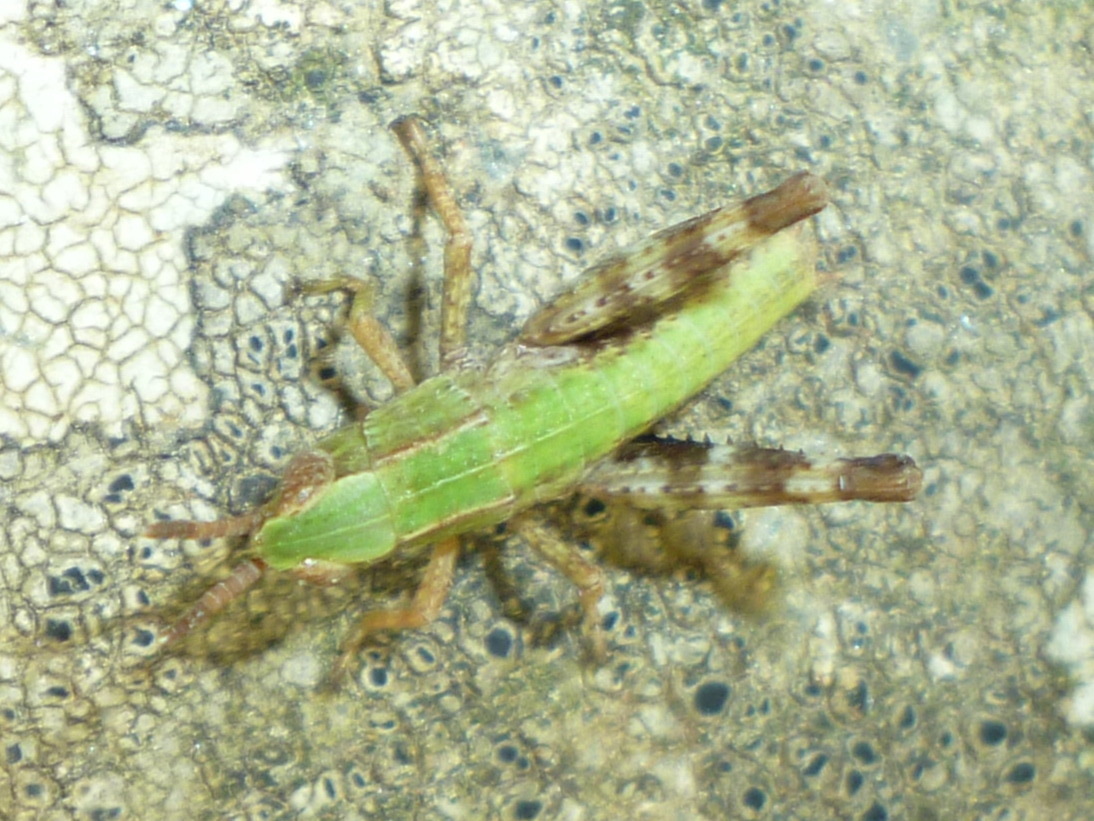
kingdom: Animalia
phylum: Arthropoda
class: Insecta
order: Orthoptera
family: Acrididae
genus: Dichromorpha
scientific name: Dichromorpha viridis
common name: Short-winged green grasshopper
